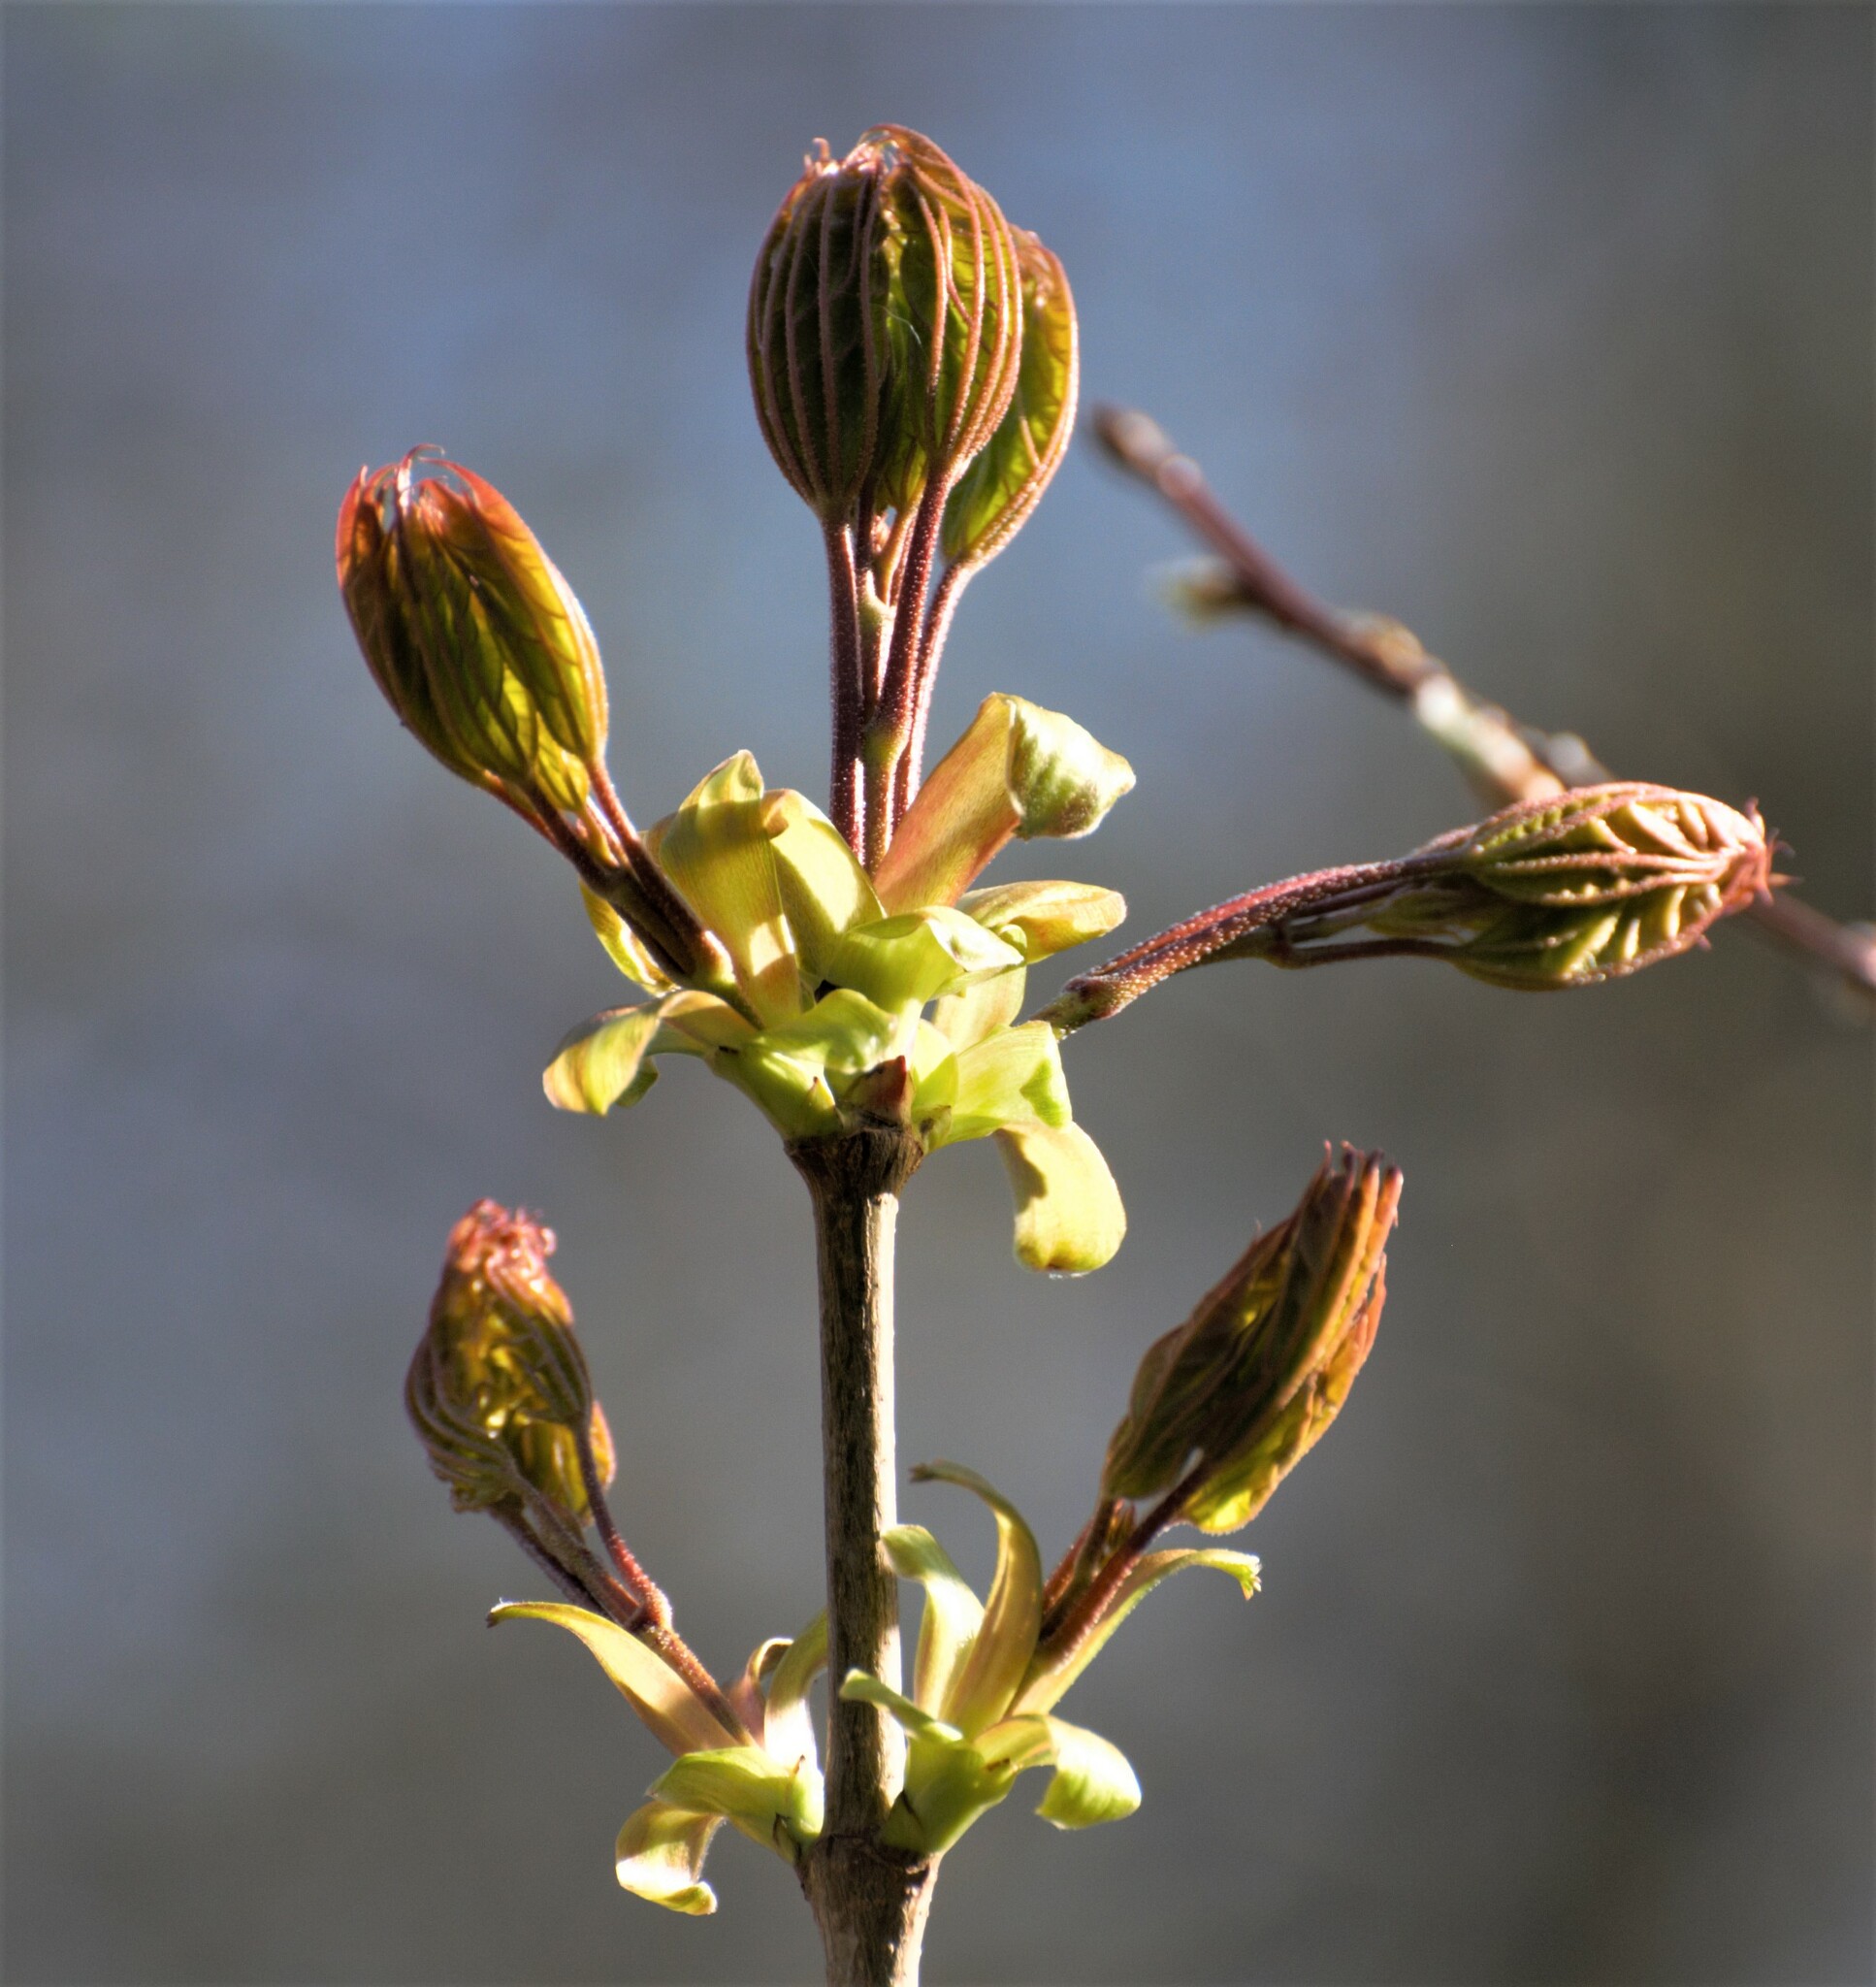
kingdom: Plantae
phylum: Tracheophyta
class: Magnoliopsida
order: Sapindales
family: Sapindaceae
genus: Acer
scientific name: Acer platanoides
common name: Norway maple
